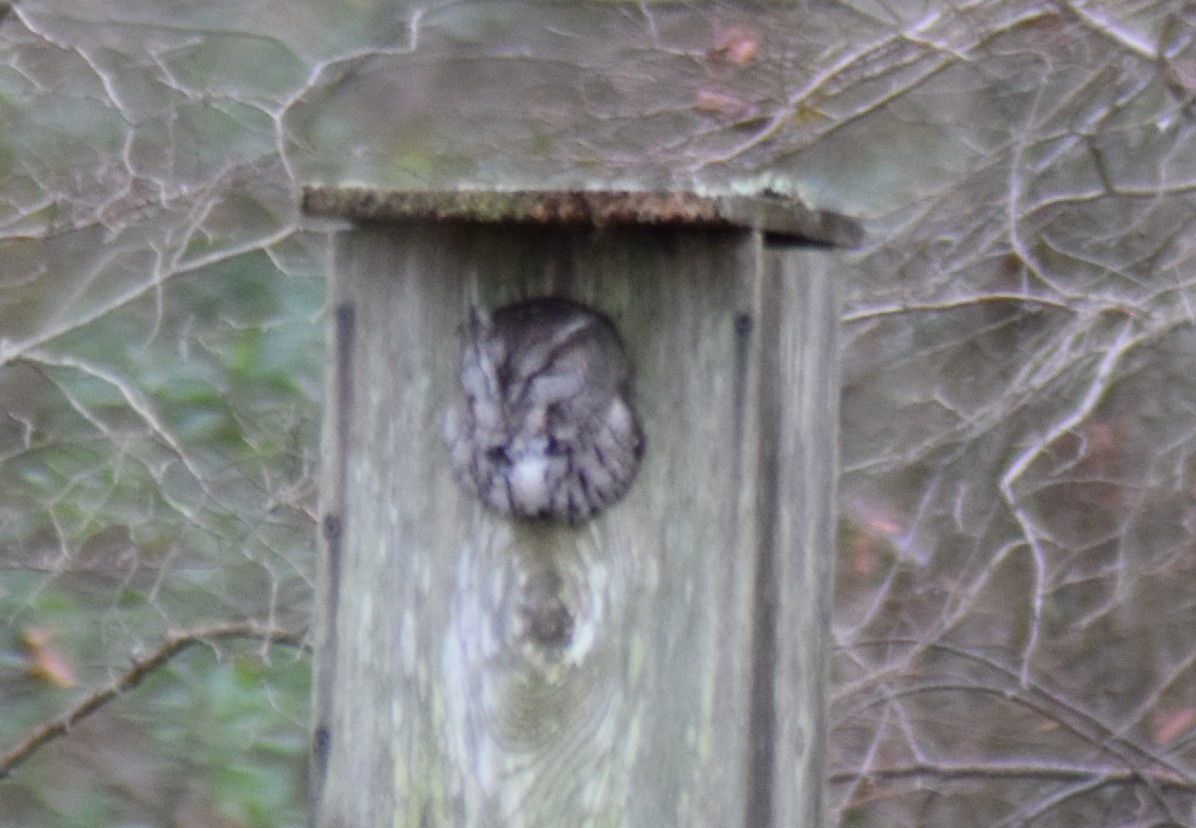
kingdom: Animalia
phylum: Chordata
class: Aves
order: Strigiformes
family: Strigidae
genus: Megascops
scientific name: Megascops asio
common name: Eastern screech-owl
